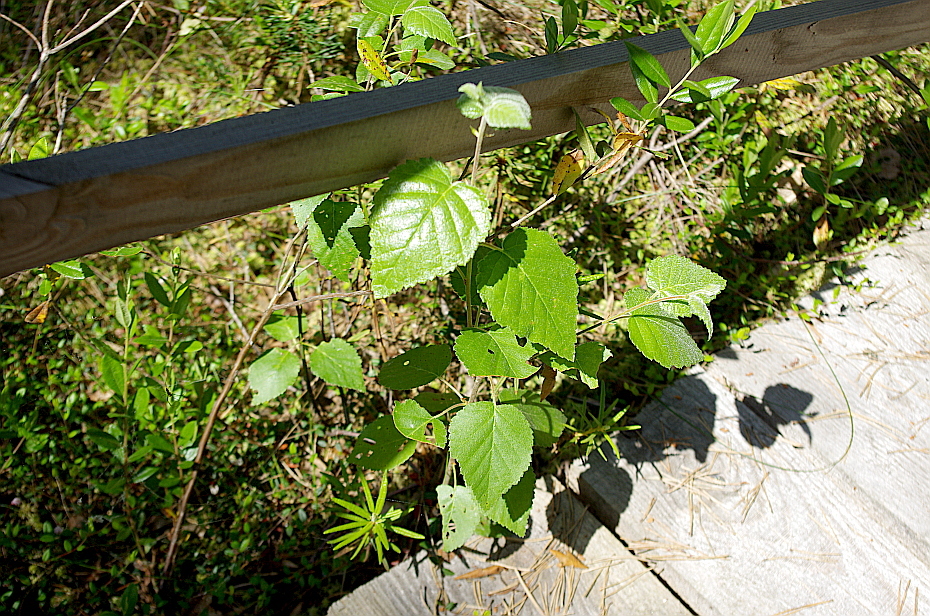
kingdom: Plantae
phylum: Tracheophyta
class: Magnoliopsida
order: Fagales
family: Betulaceae
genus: Betula
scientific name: Betula pubescens
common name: Downy birch
